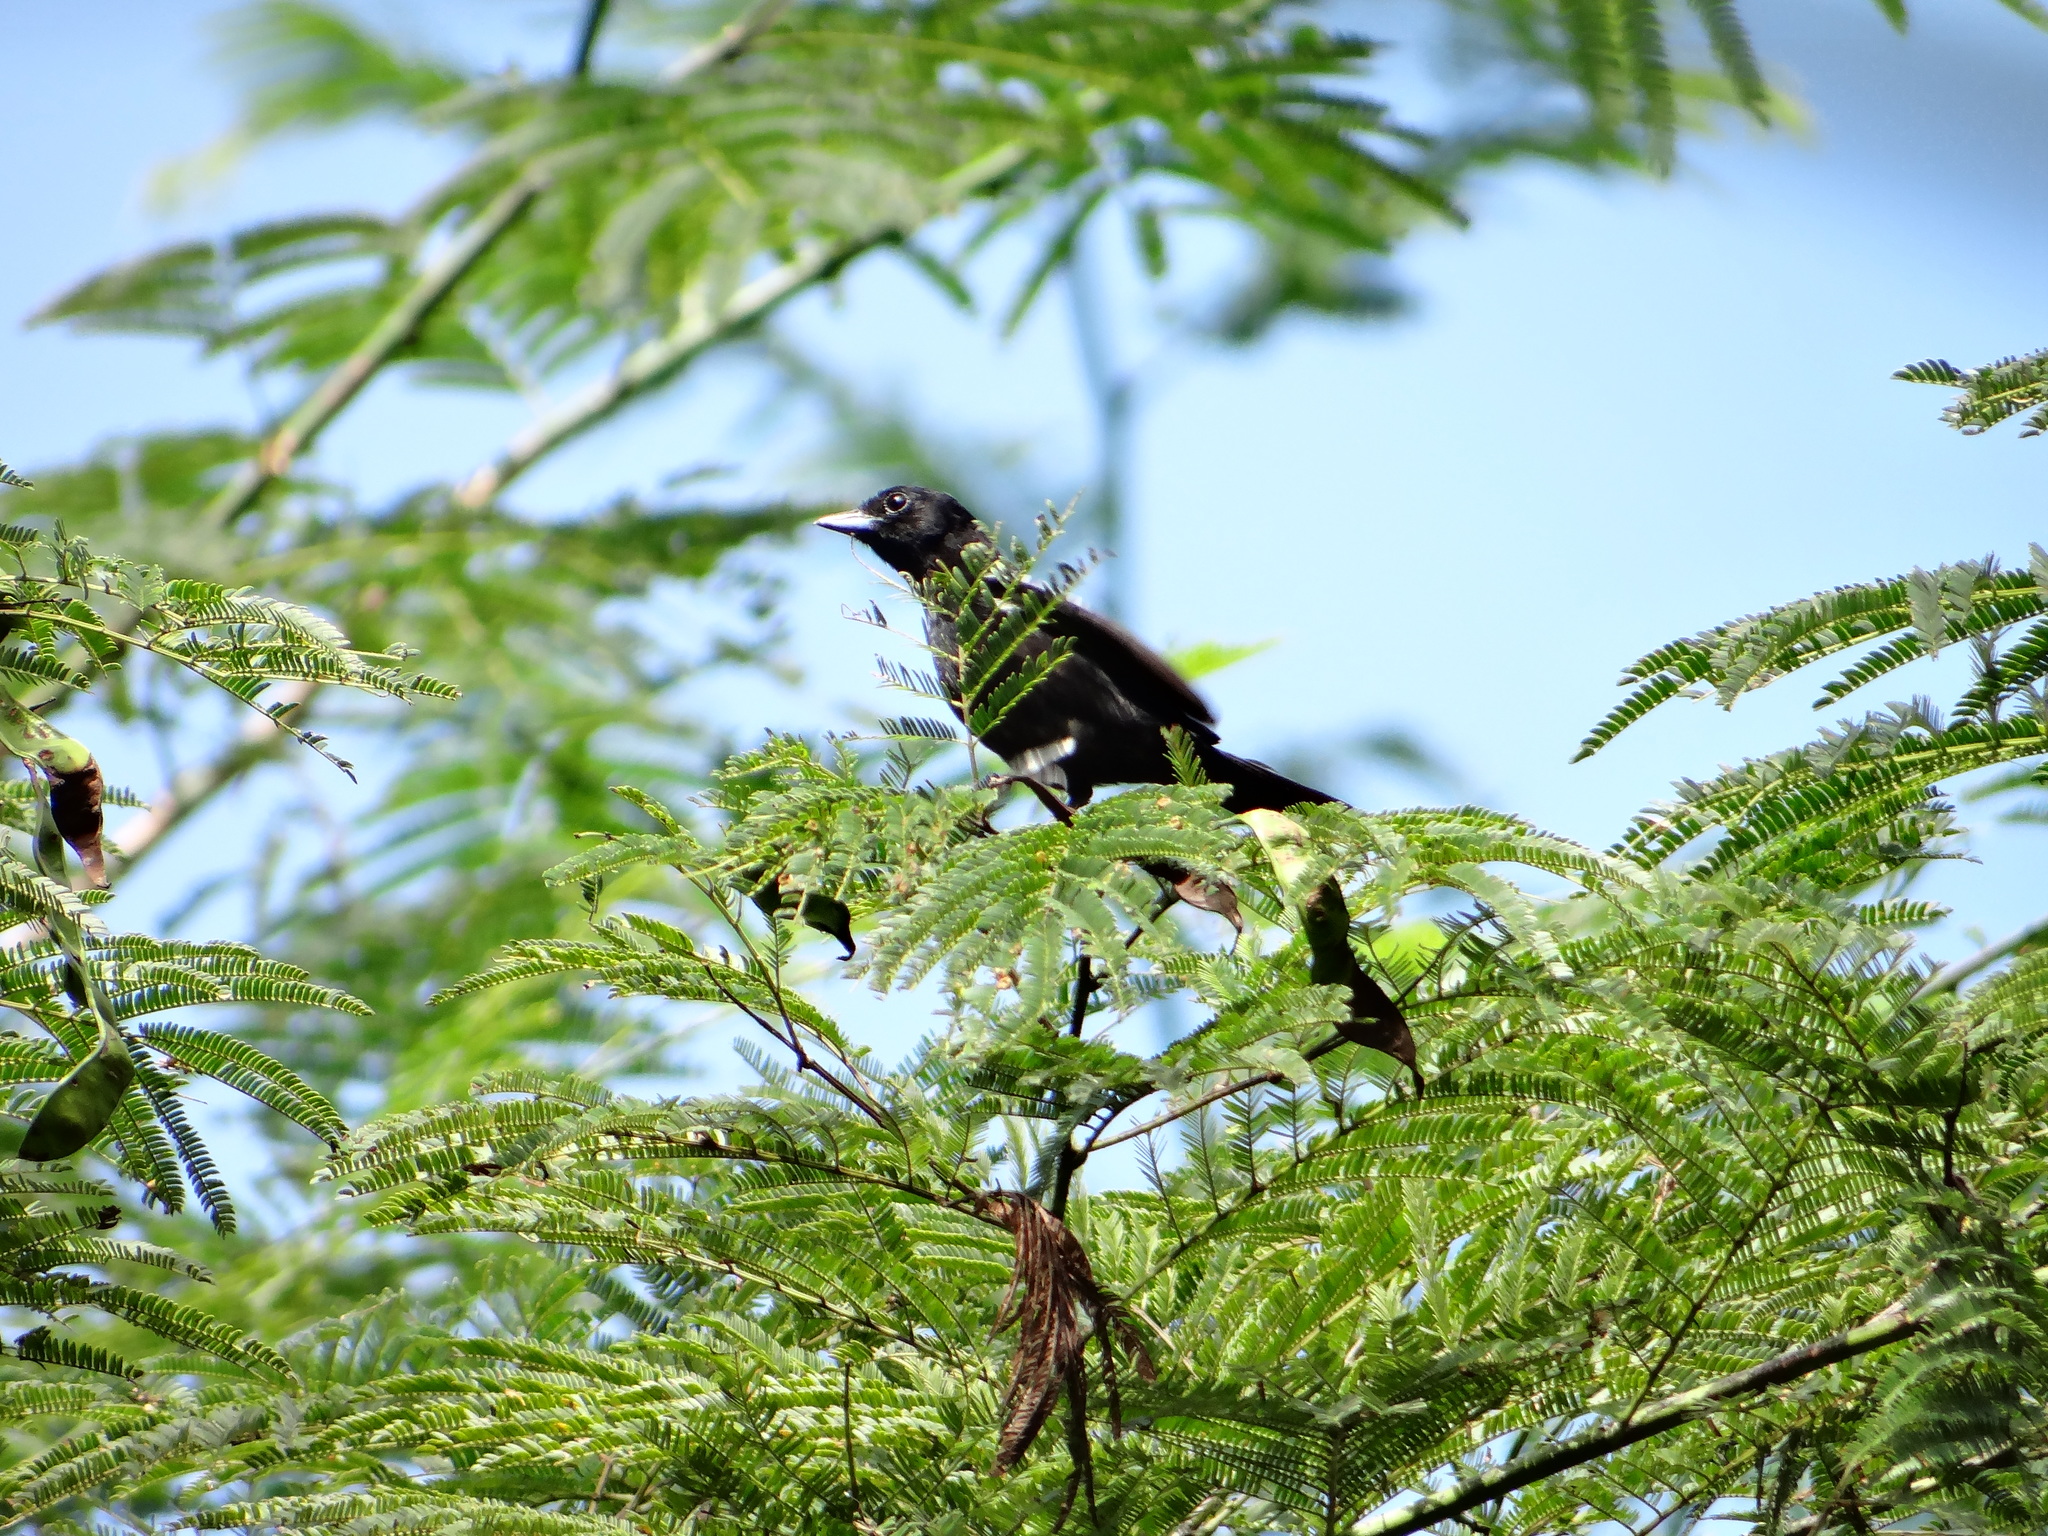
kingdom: Animalia
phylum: Chordata
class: Aves
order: Passeriformes
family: Thraupidae
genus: Loriotus
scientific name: Loriotus luctuosus
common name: White-shouldered tanager
